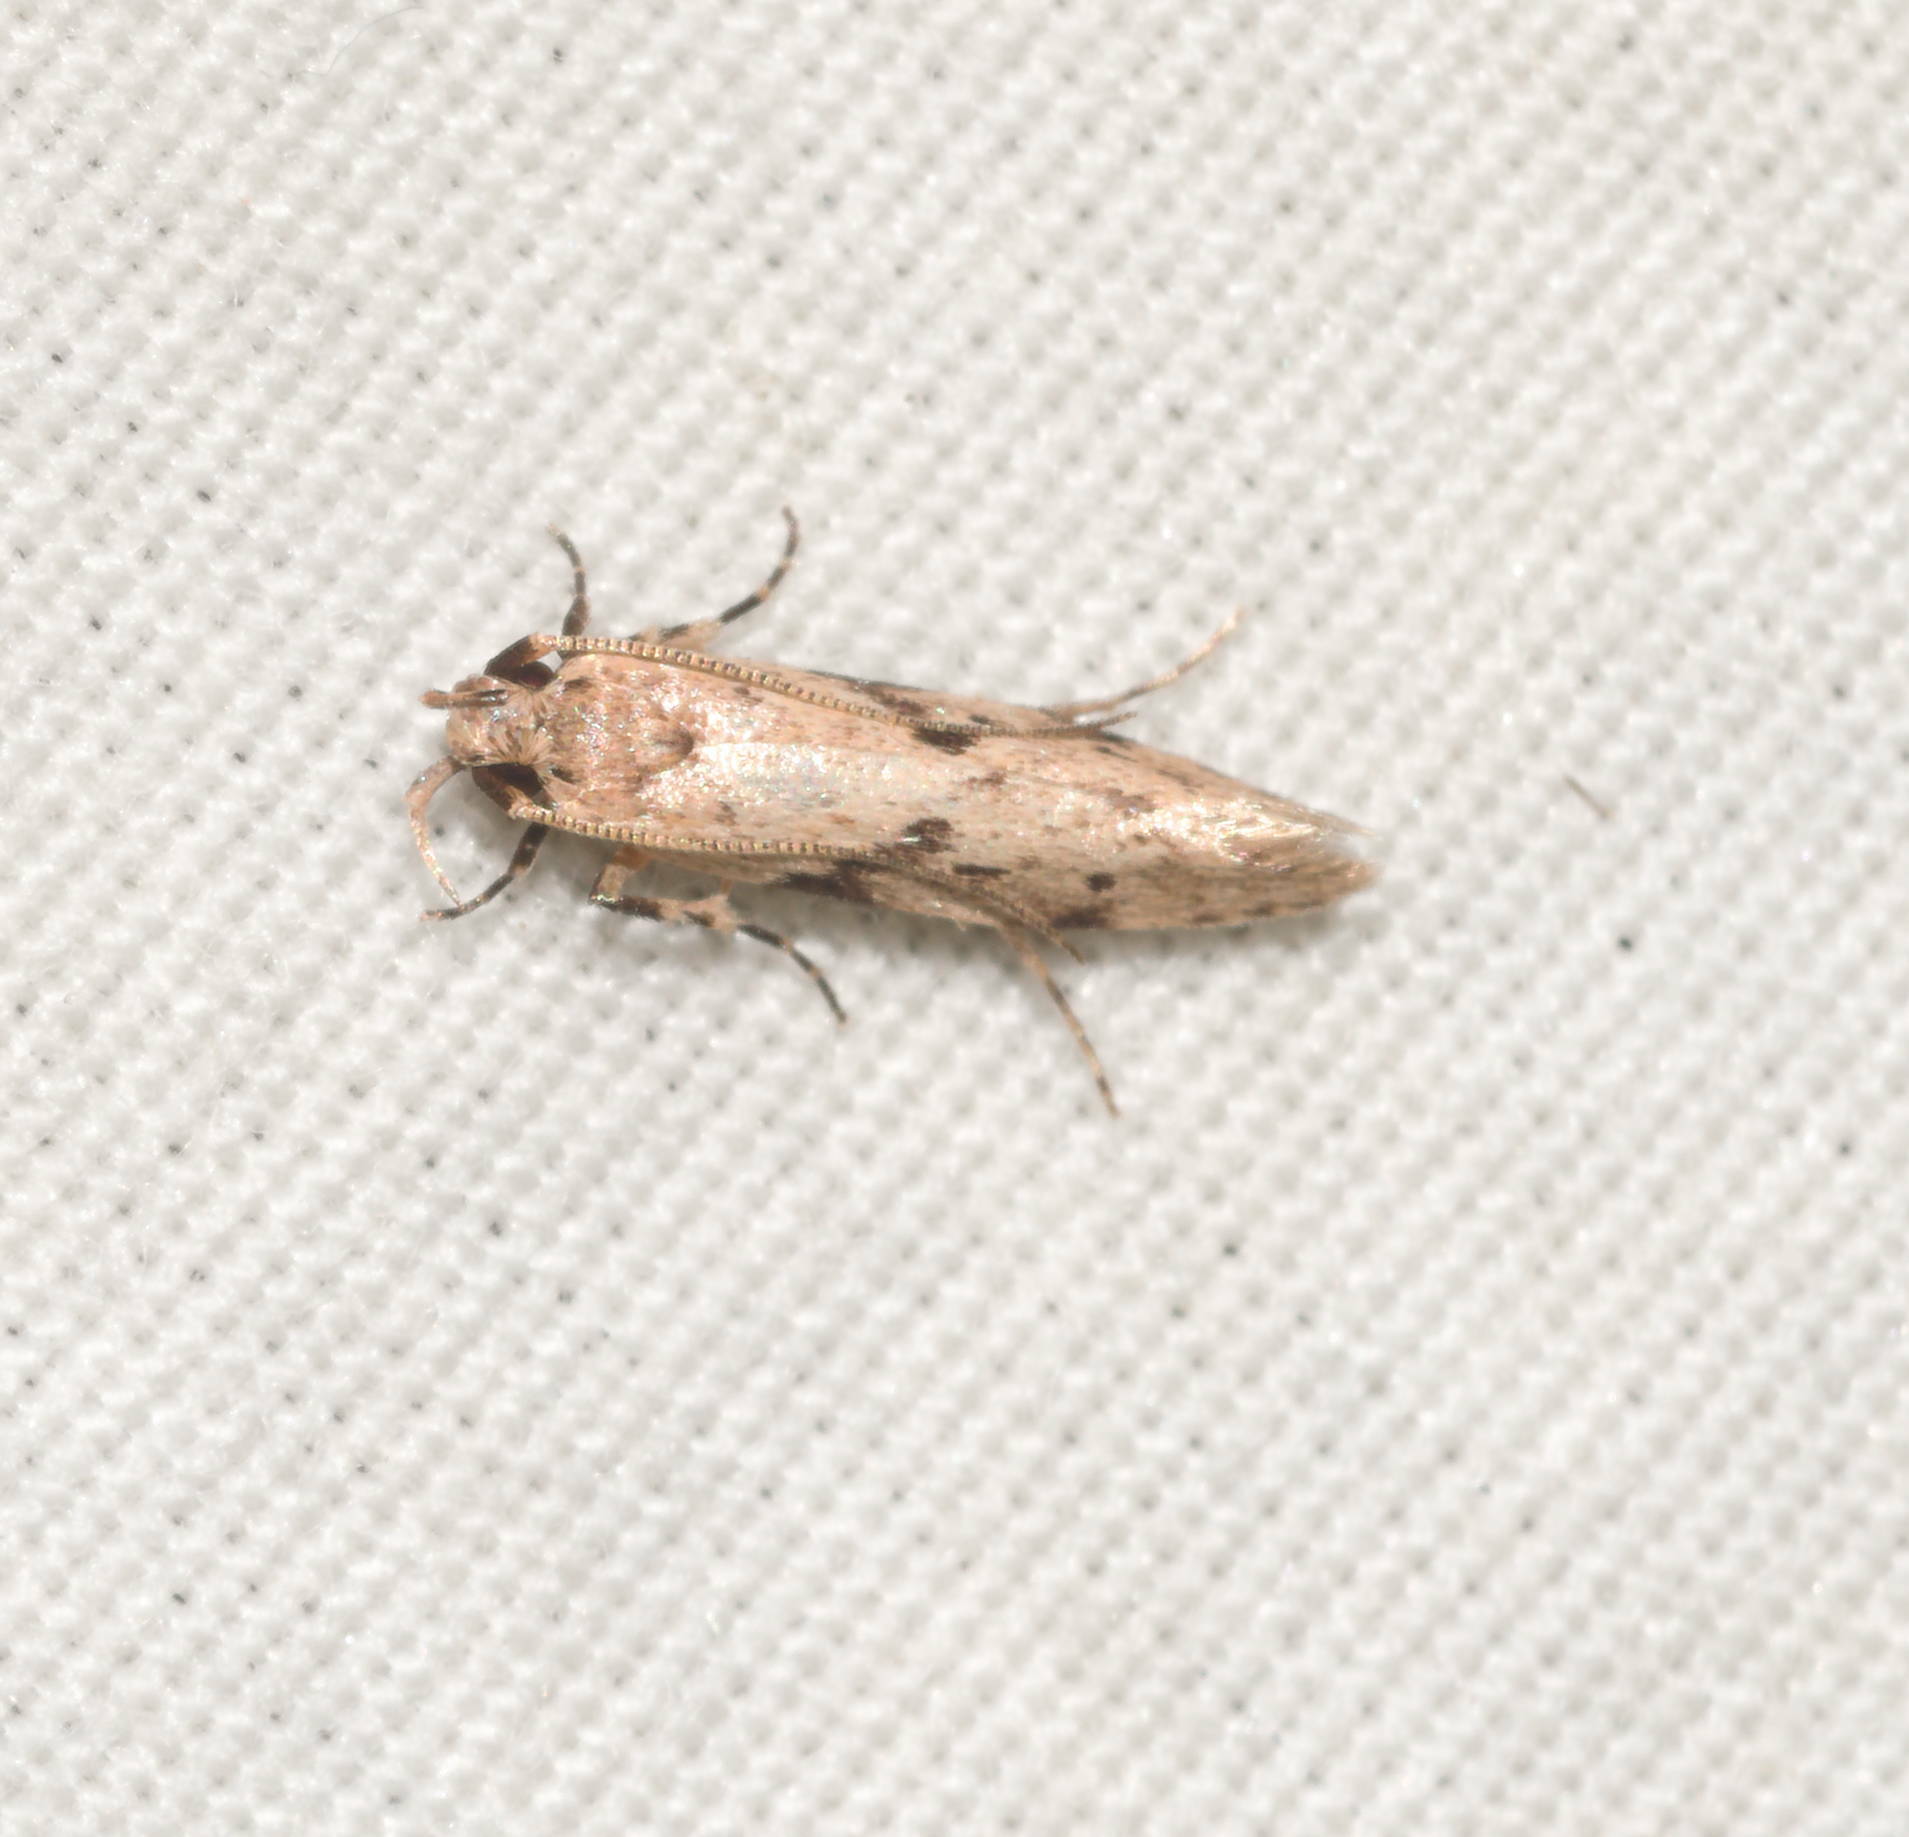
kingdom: Animalia
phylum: Arthropoda
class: Insecta
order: Lepidoptera
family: Cosmopterigidae
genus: Hyposmochoma
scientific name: Hyposmochoma nephelodes
